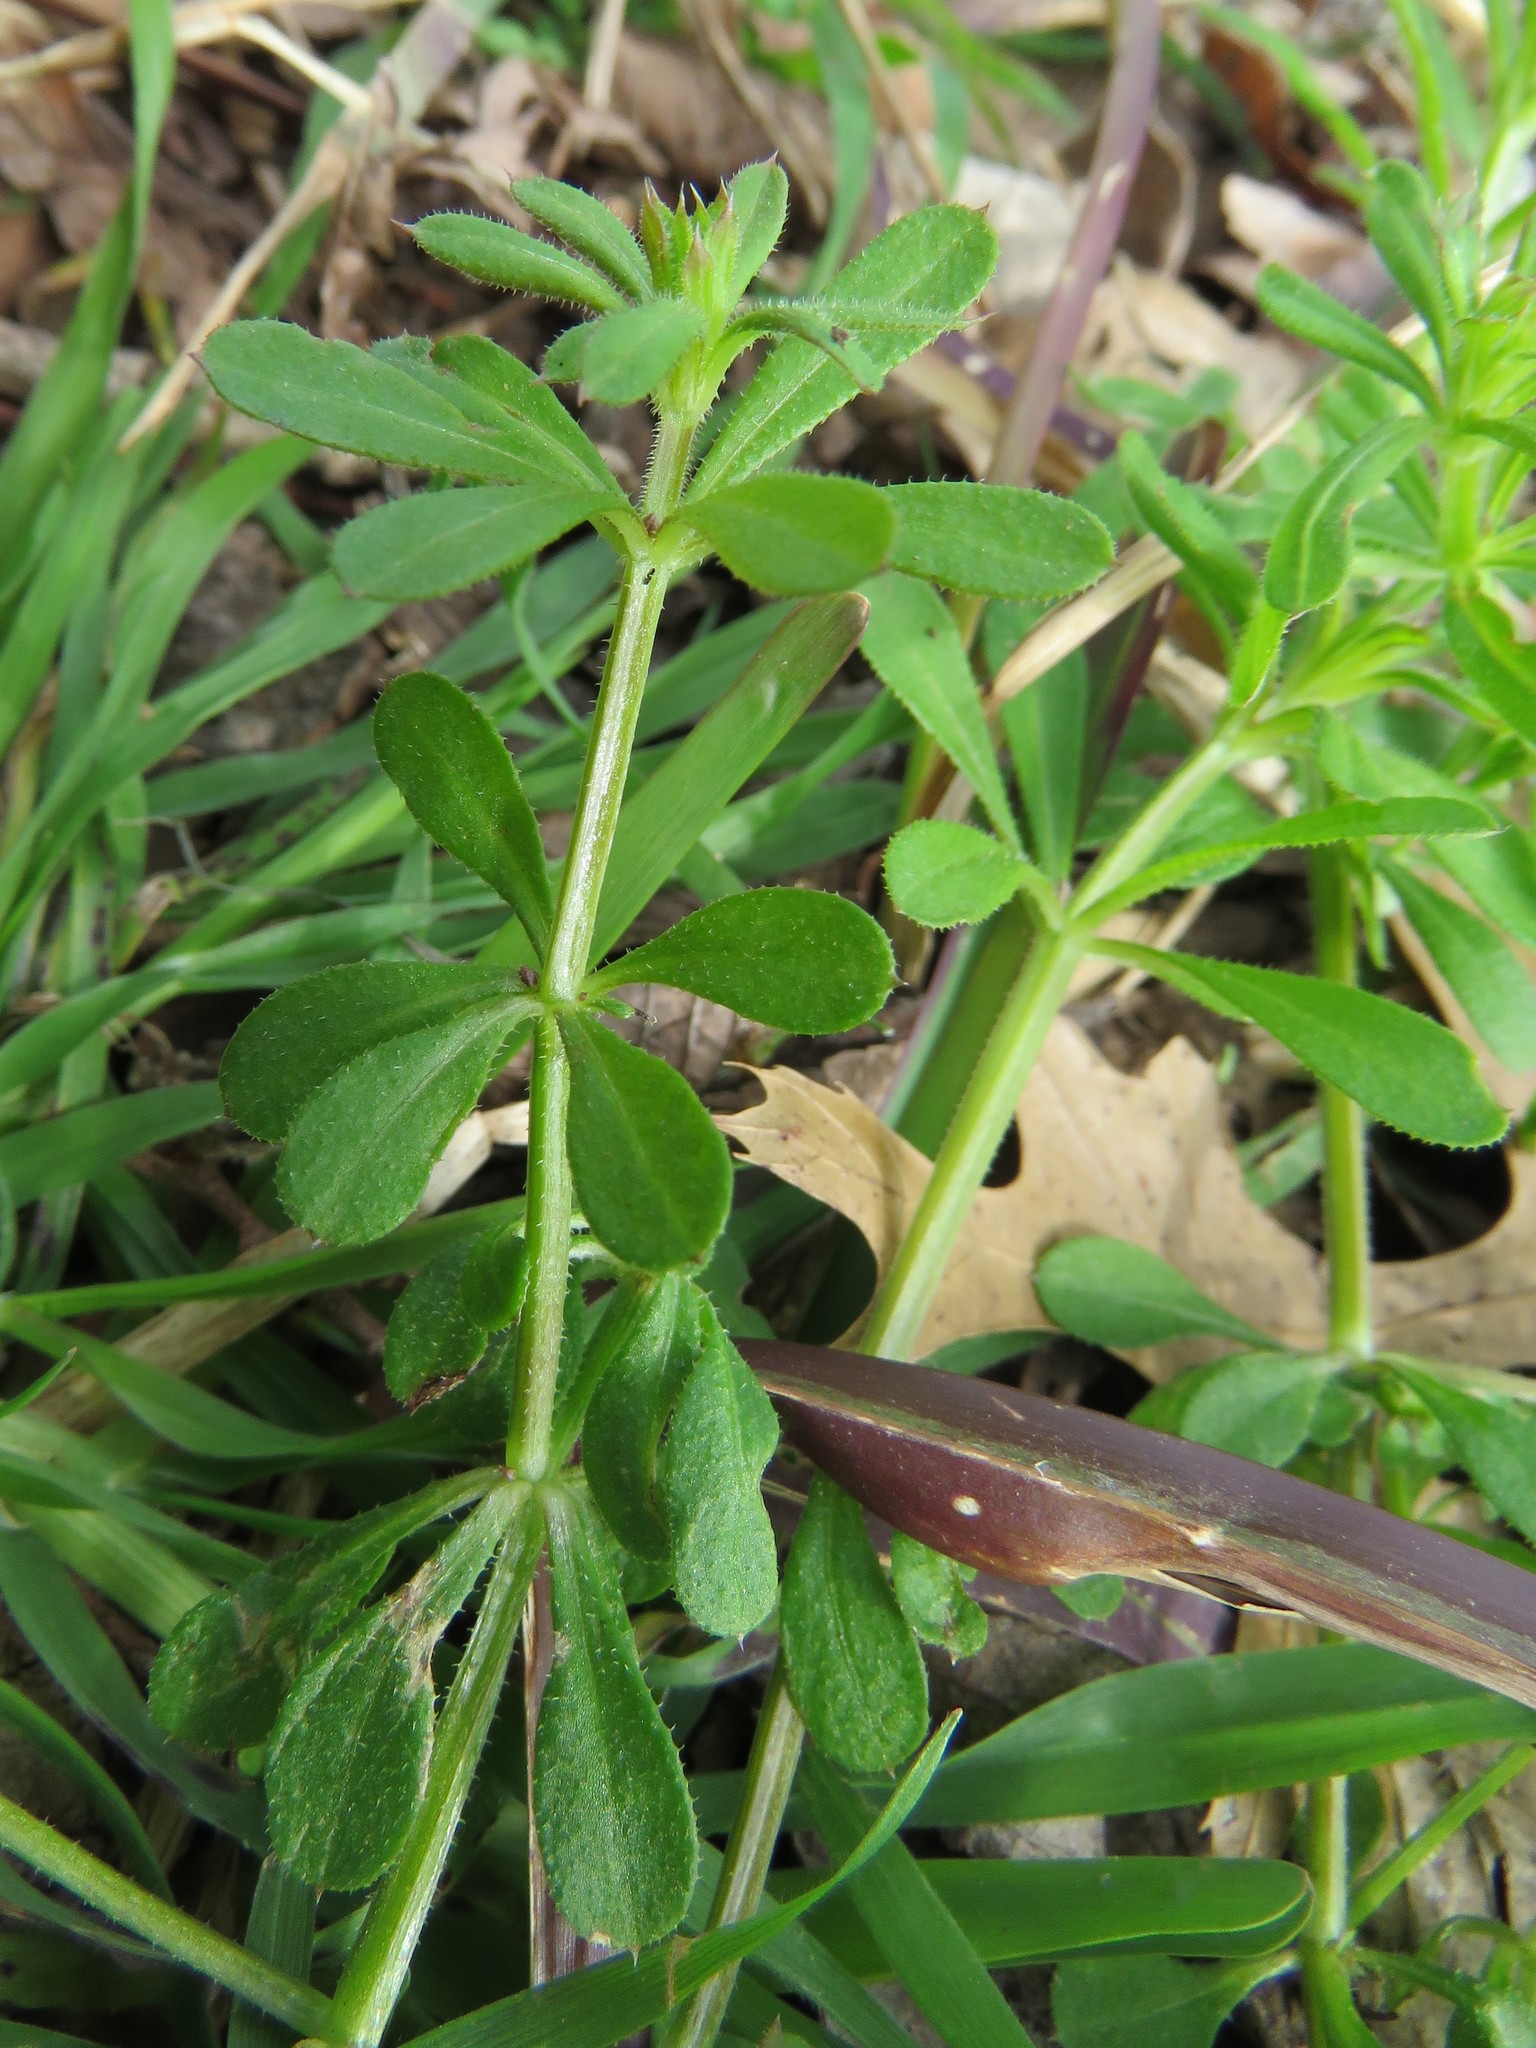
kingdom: Plantae
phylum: Tracheophyta
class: Magnoliopsida
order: Gentianales
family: Rubiaceae
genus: Galium
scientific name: Galium aparine
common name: Cleavers
